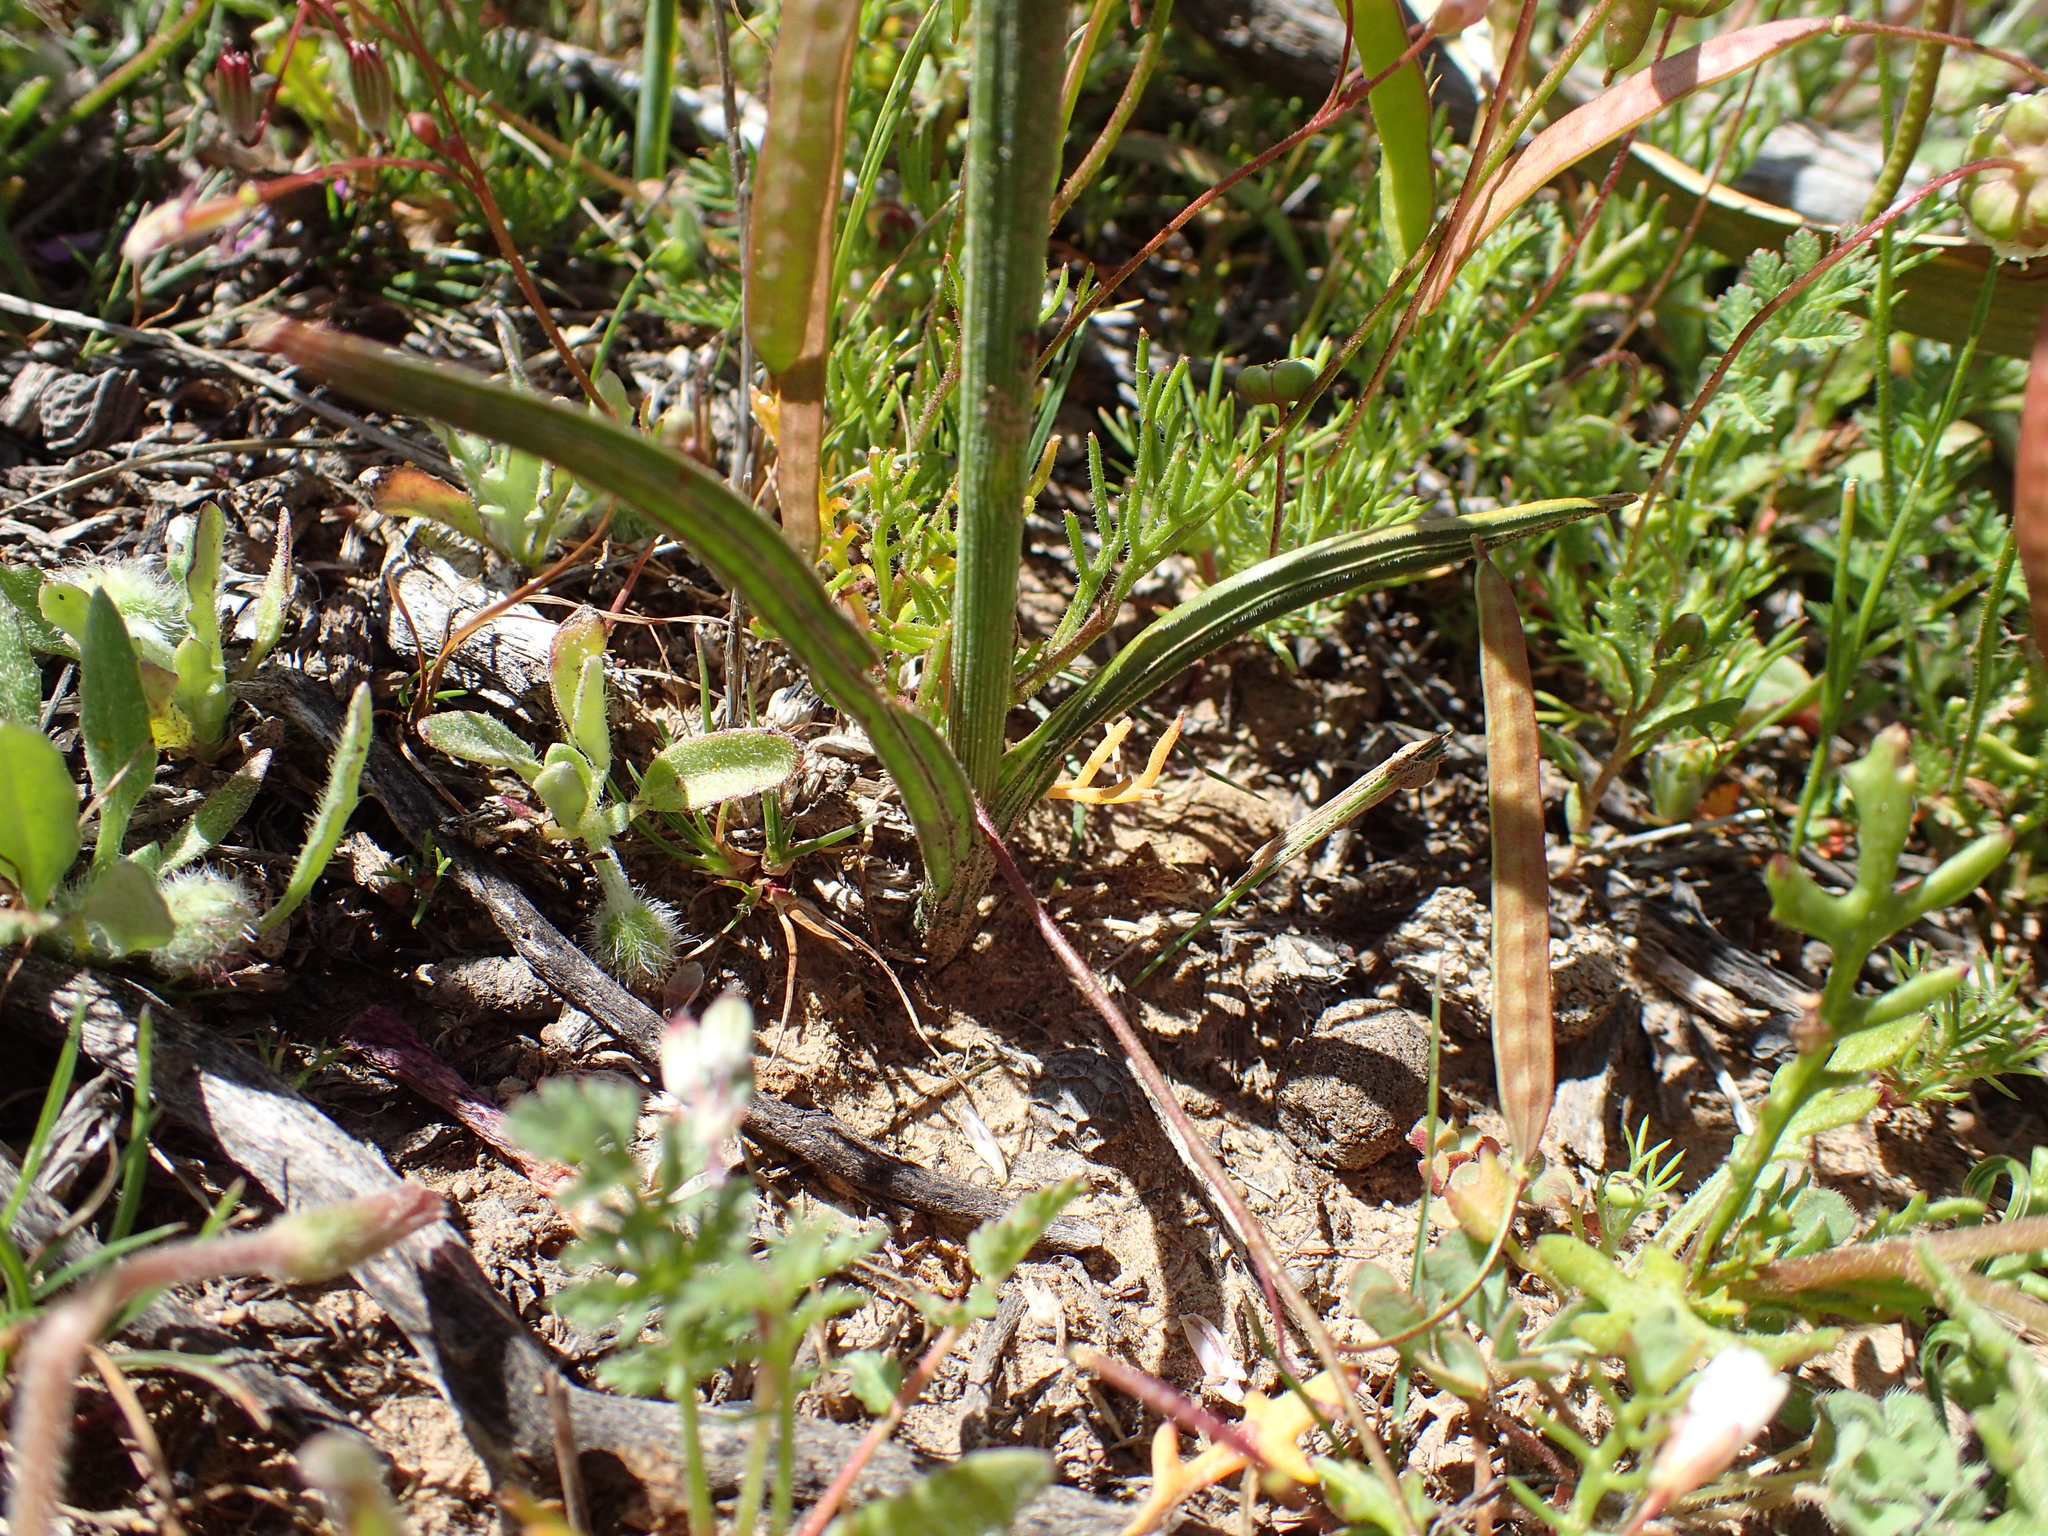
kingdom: Plantae
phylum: Tracheophyta
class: Liliopsida
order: Asparagales
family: Iridaceae
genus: Geissorhiza
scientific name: Geissorhiza heterostyla
